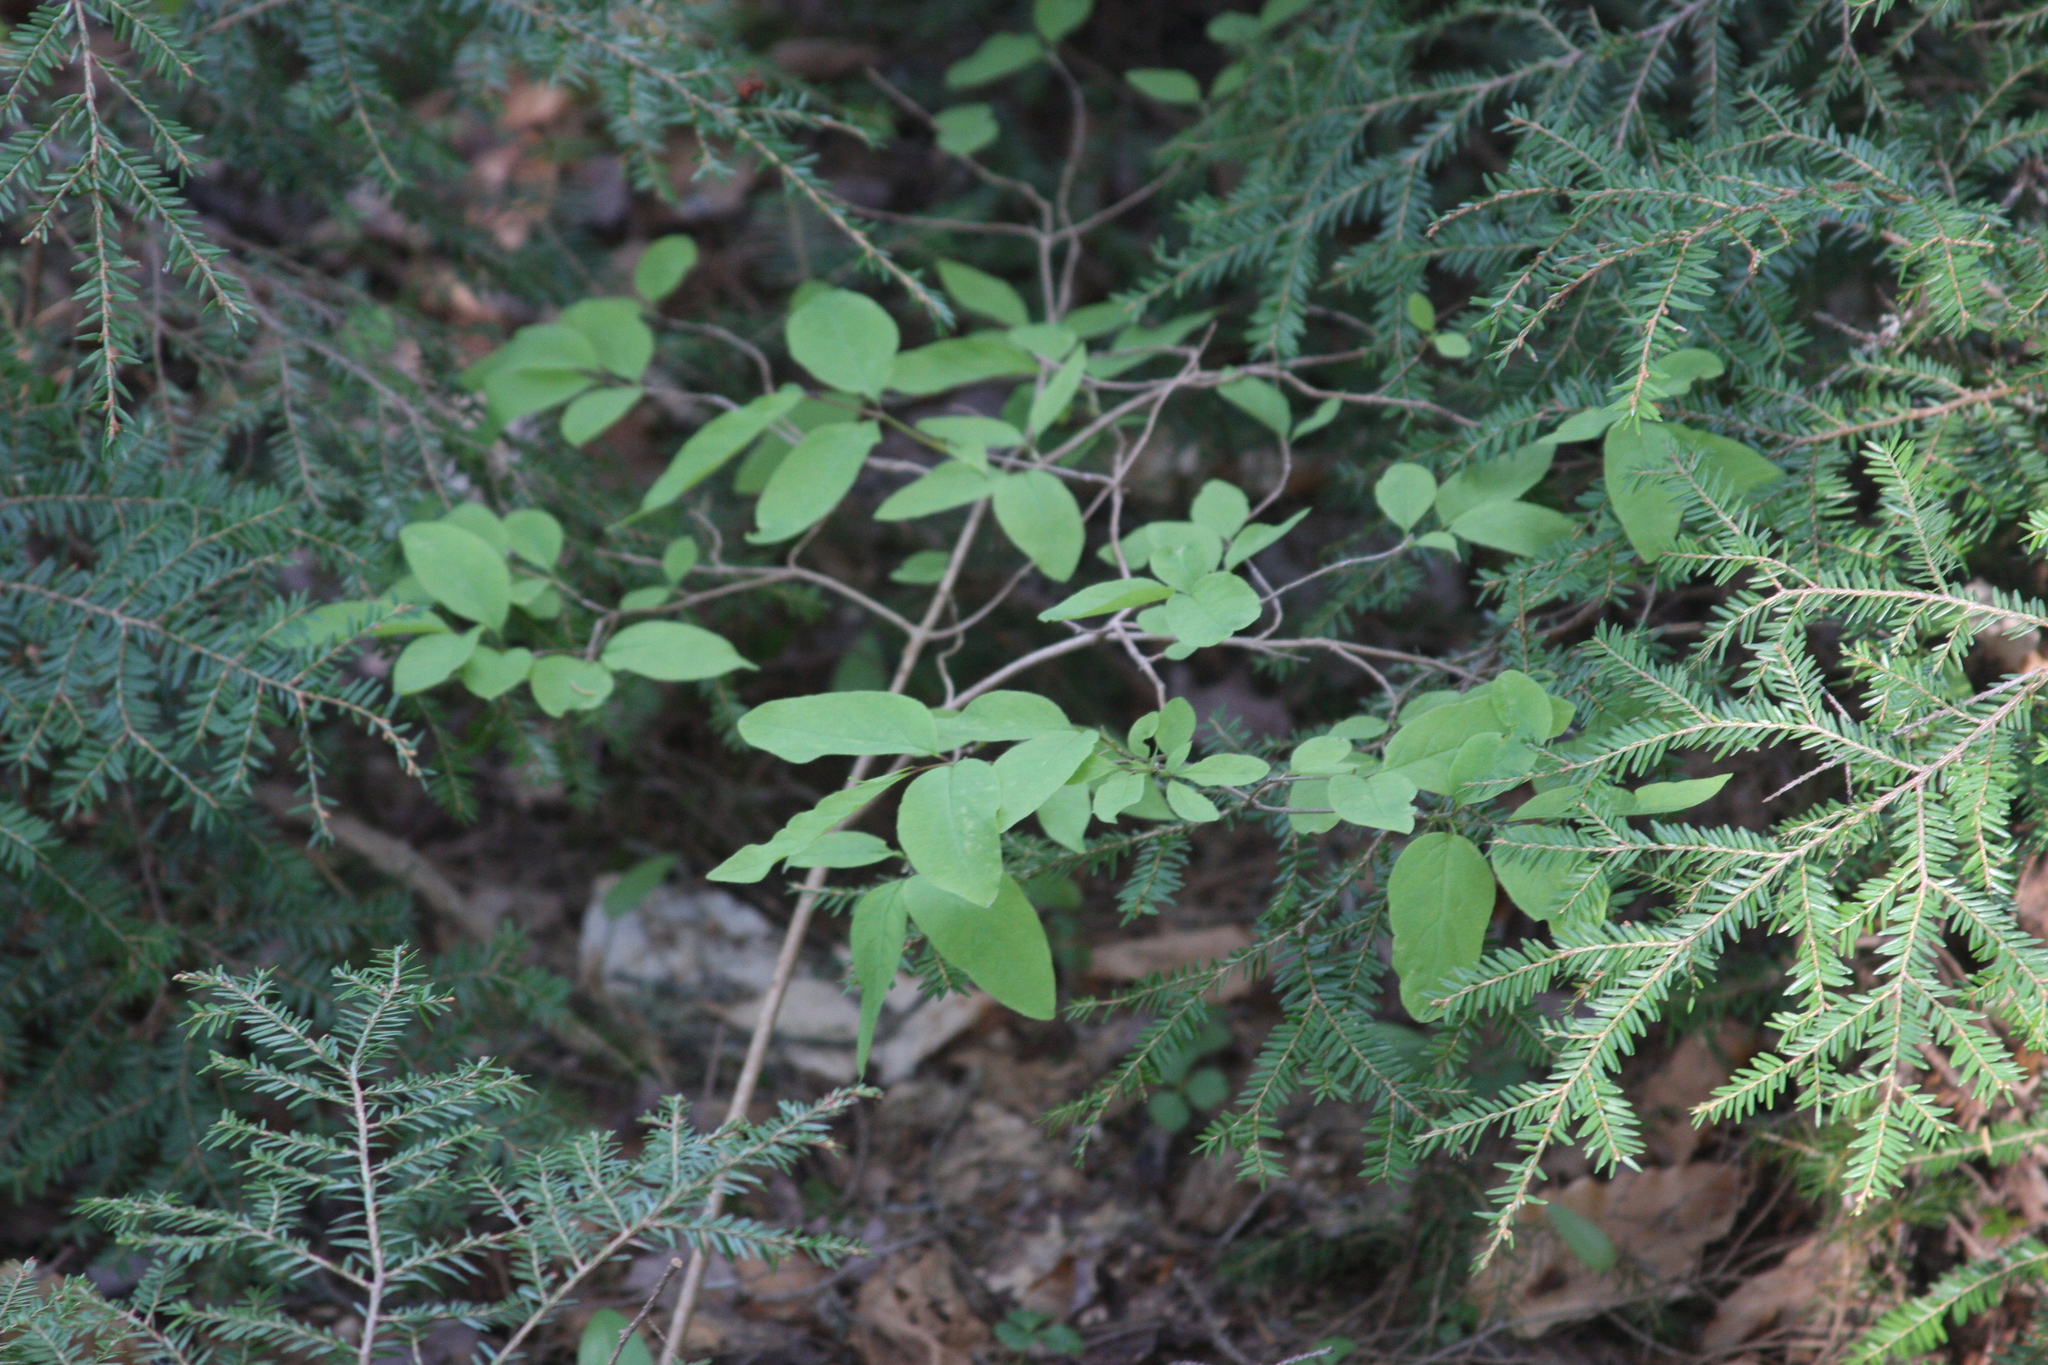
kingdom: Plantae
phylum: Tracheophyta
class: Magnoliopsida
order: Dipsacales
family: Caprifoliaceae
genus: Lonicera
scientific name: Lonicera canadensis
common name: American fly-honeysuckle
